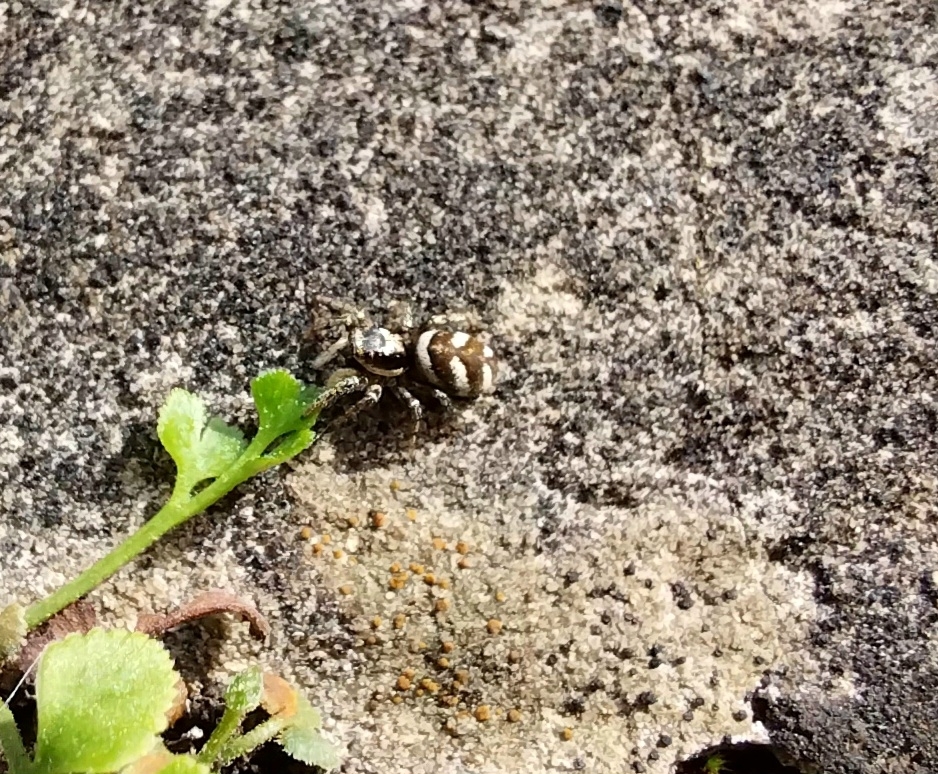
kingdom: Animalia
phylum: Arthropoda
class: Arachnida
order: Araneae
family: Salticidae
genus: Salticus
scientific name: Salticus scenicus
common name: Zebra jumper
